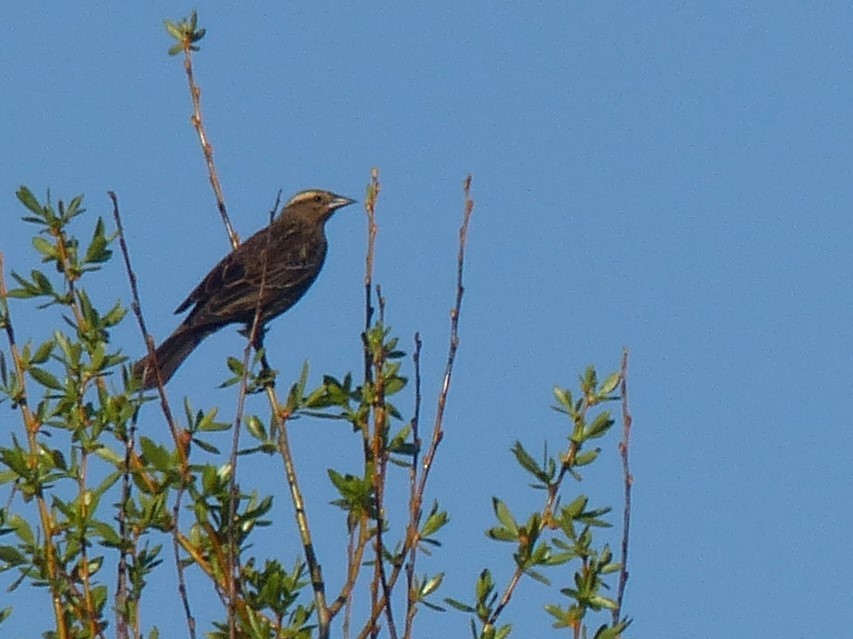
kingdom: Animalia
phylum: Chordata
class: Aves
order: Passeriformes
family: Icteridae
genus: Agelaius
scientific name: Agelaius phoeniceus
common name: Red-winged blackbird
